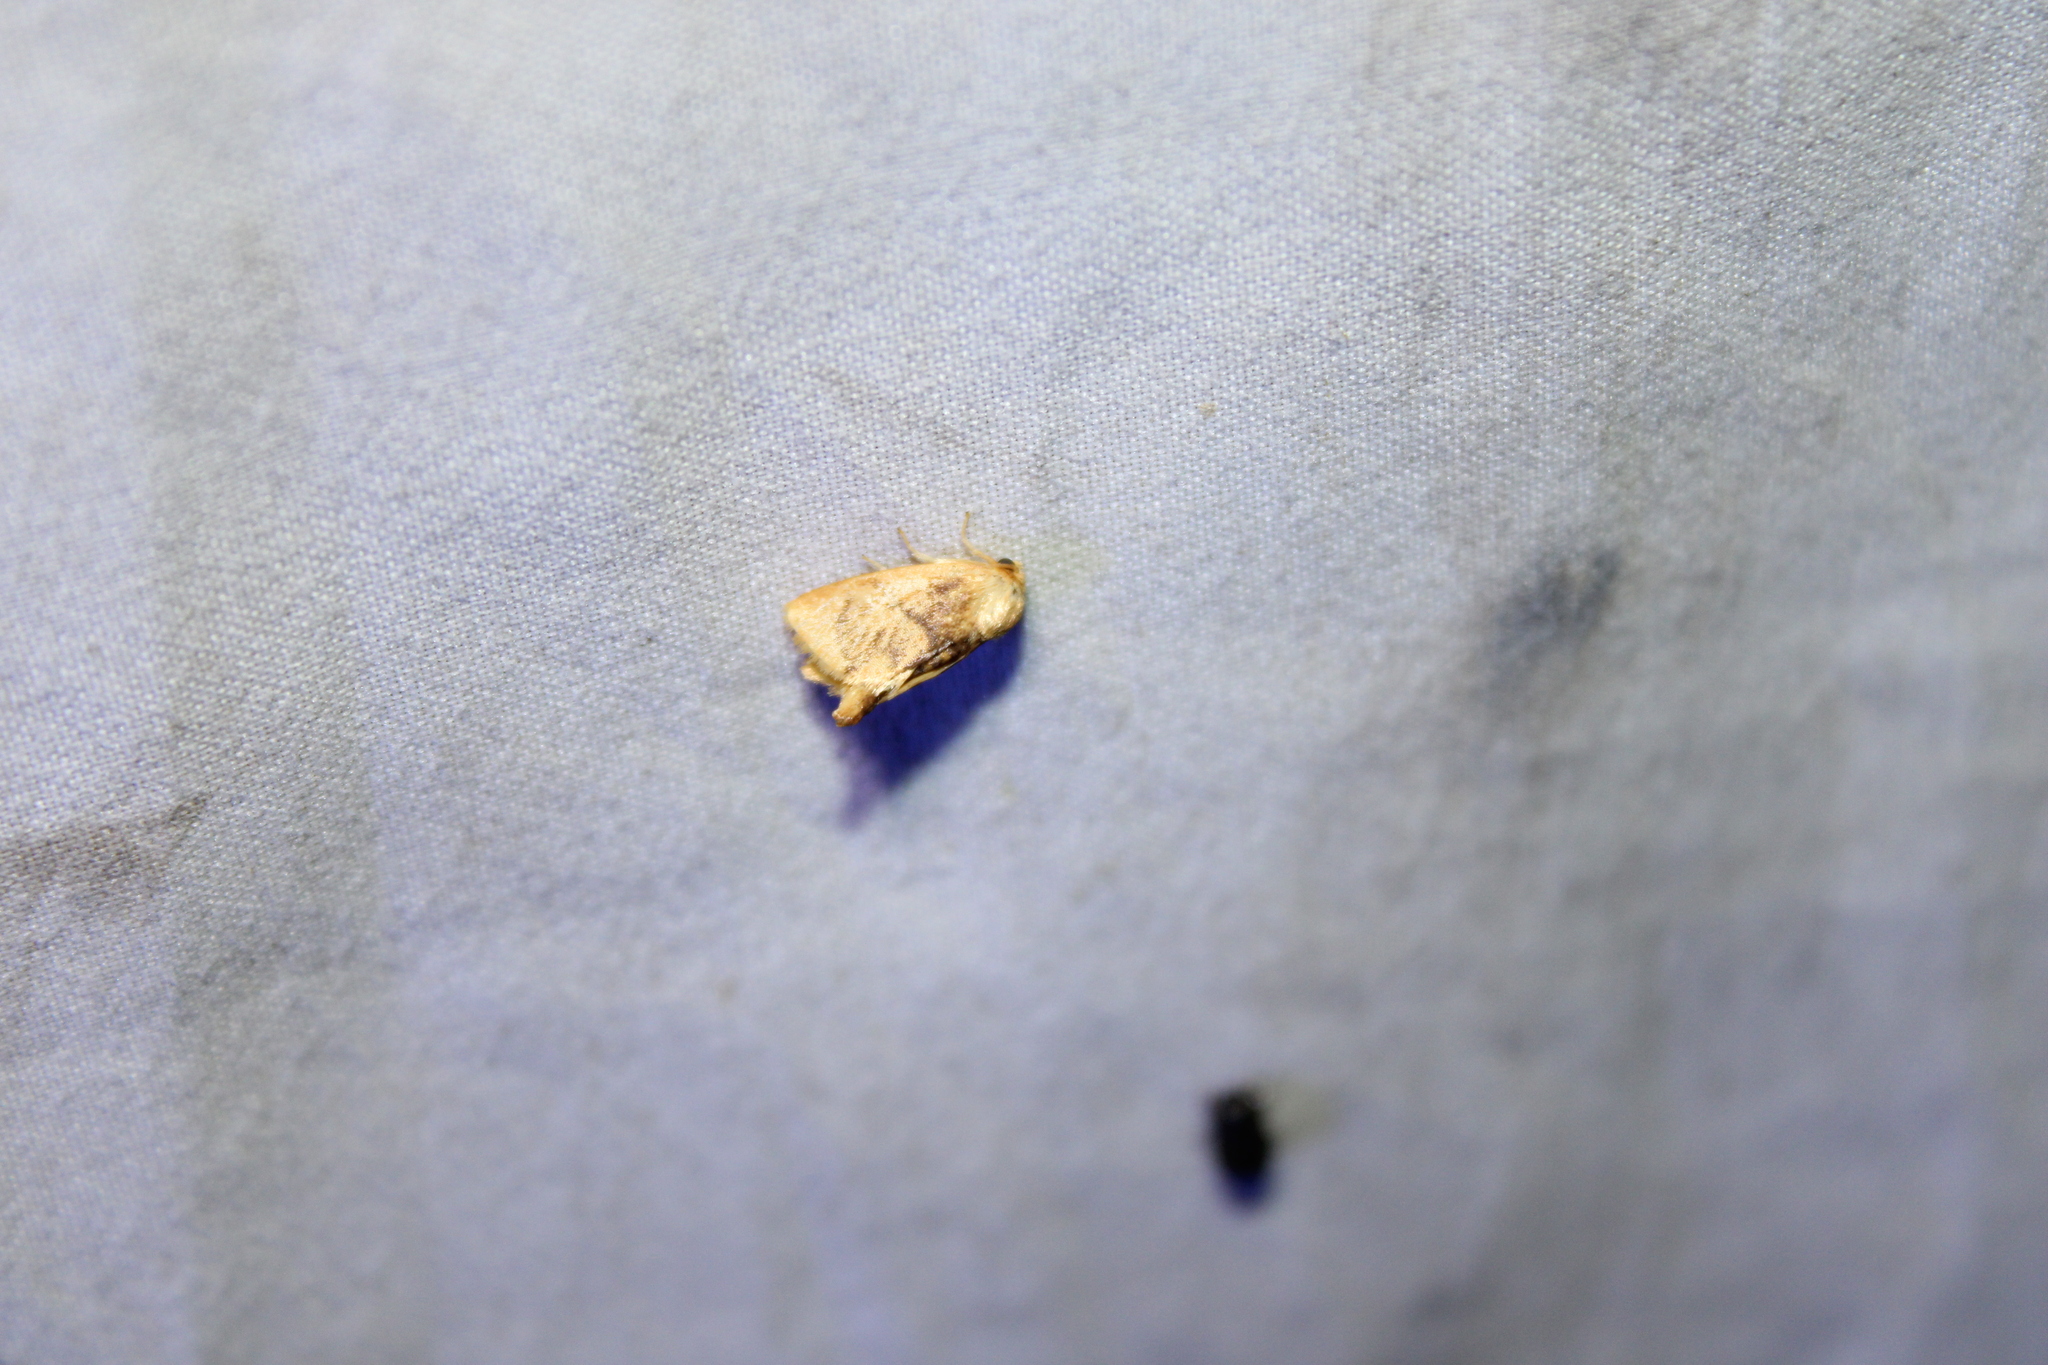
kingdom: Animalia
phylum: Arthropoda
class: Insecta
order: Lepidoptera
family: Limacodidae
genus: Tortricidia
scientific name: Tortricidia flexuosa
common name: Abbreviated button slug moth
